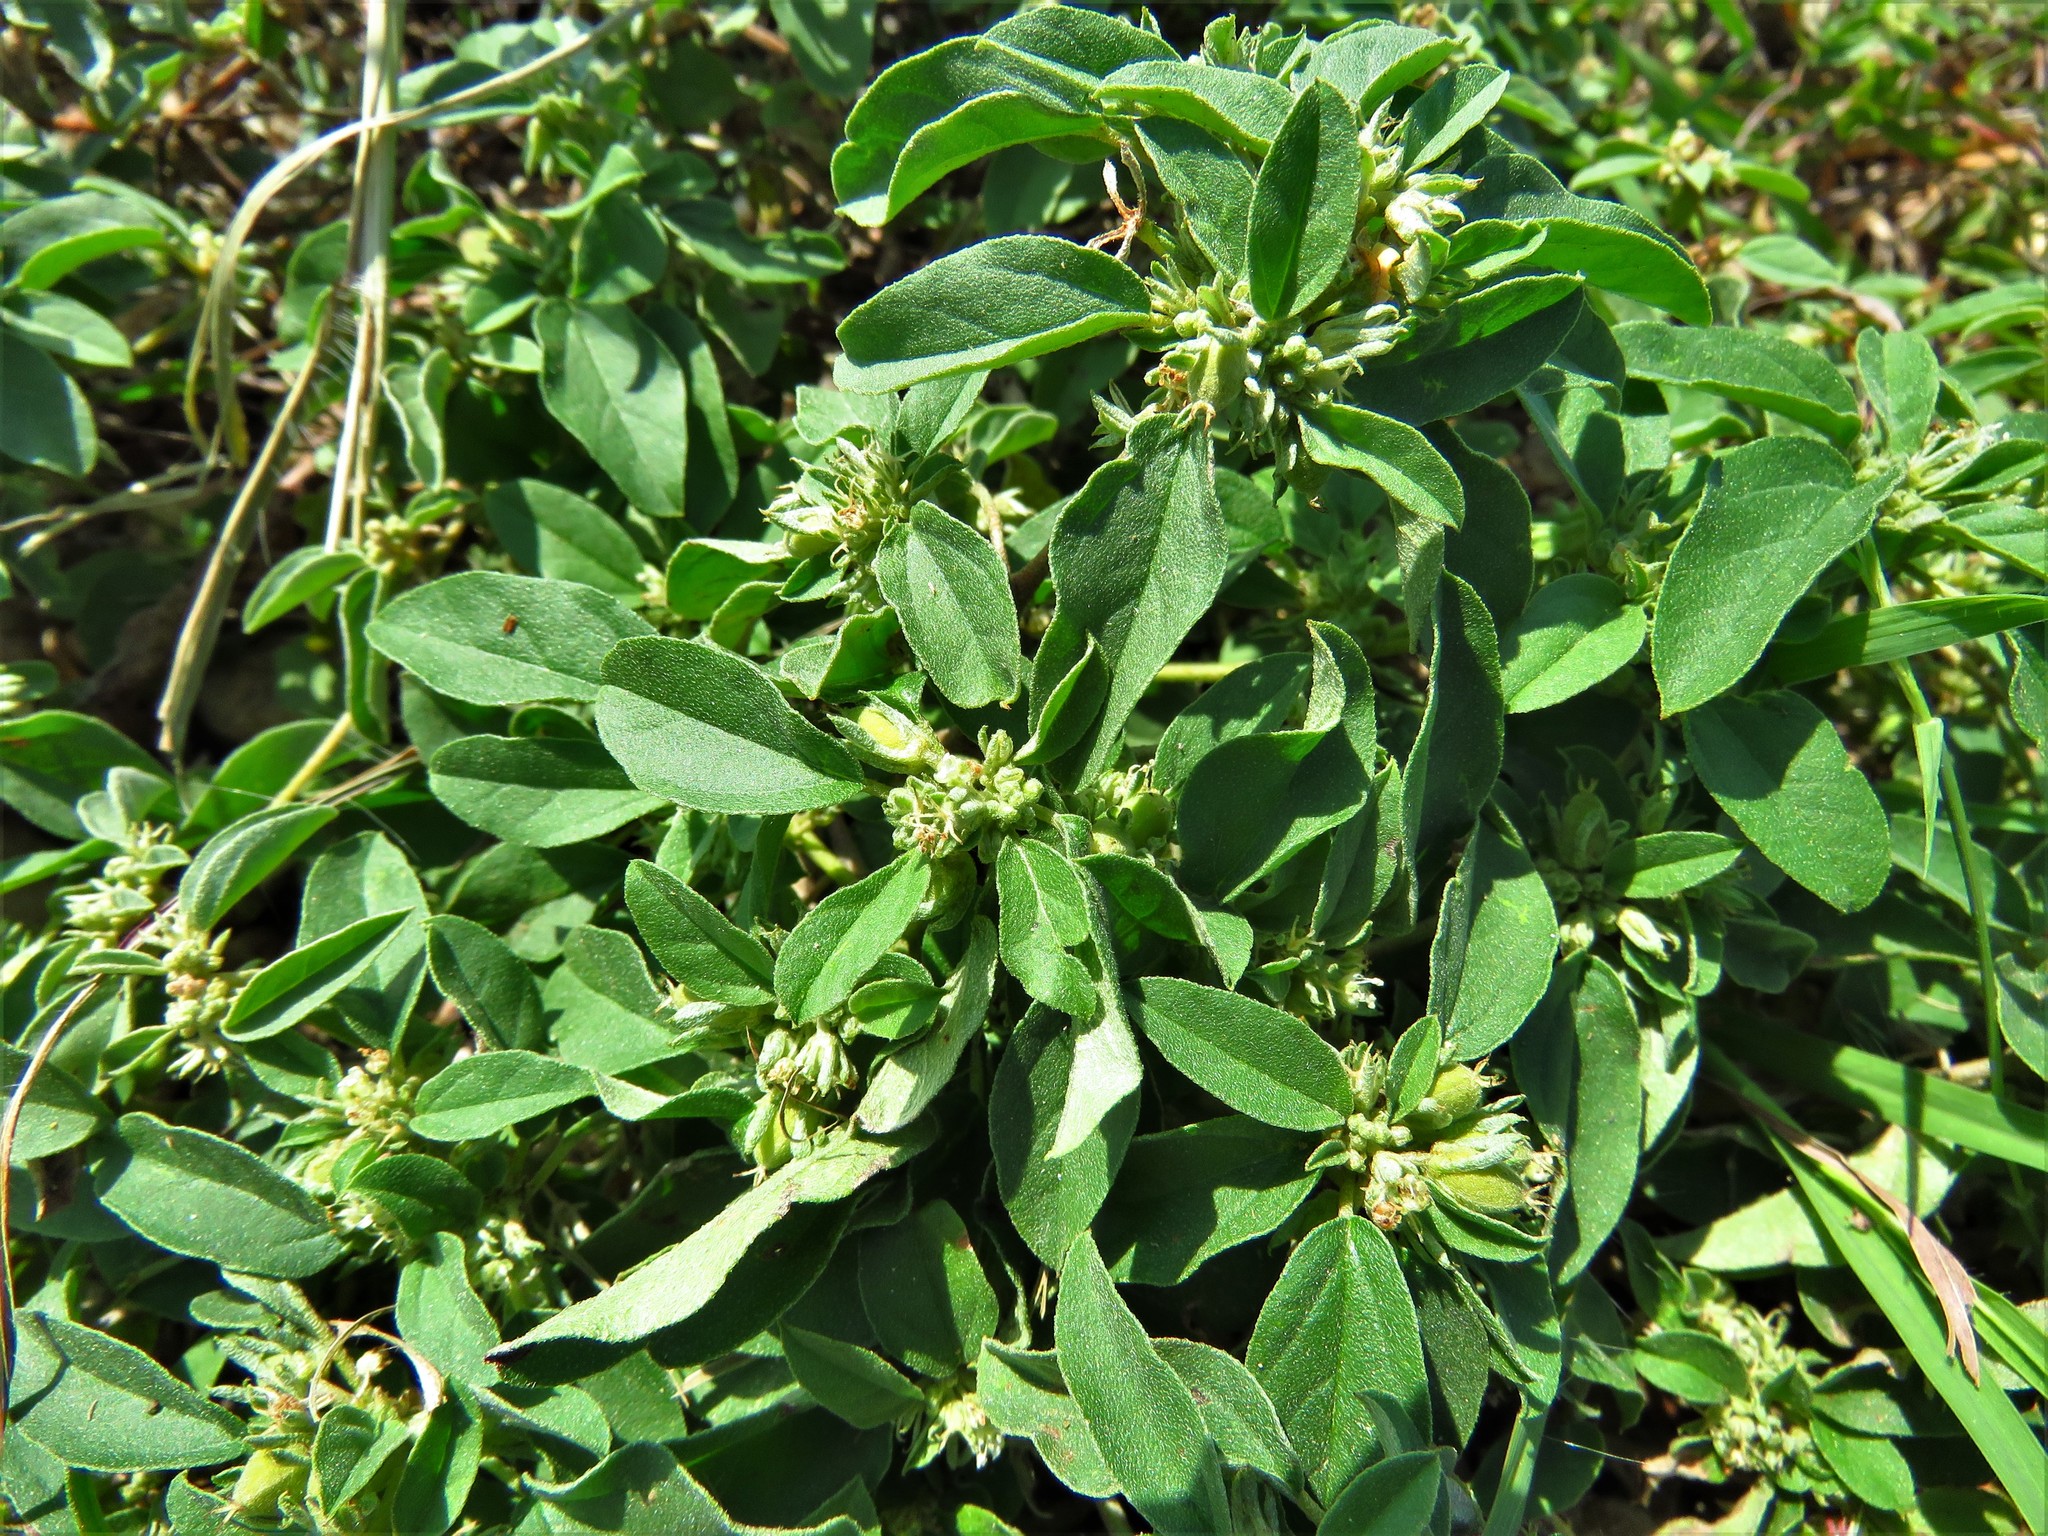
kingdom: Plantae
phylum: Tracheophyta
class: Magnoliopsida
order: Malpighiales
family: Euphorbiaceae
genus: Croton
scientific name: Croton monanthogynus
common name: One-seed croton
